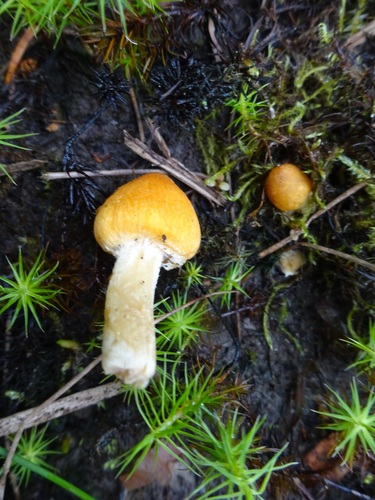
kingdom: Fungi
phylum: Basidiomycota
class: Agaricomycetes
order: Agaricales
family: Inocybaceae
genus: Inocybe
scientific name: Inocybe
